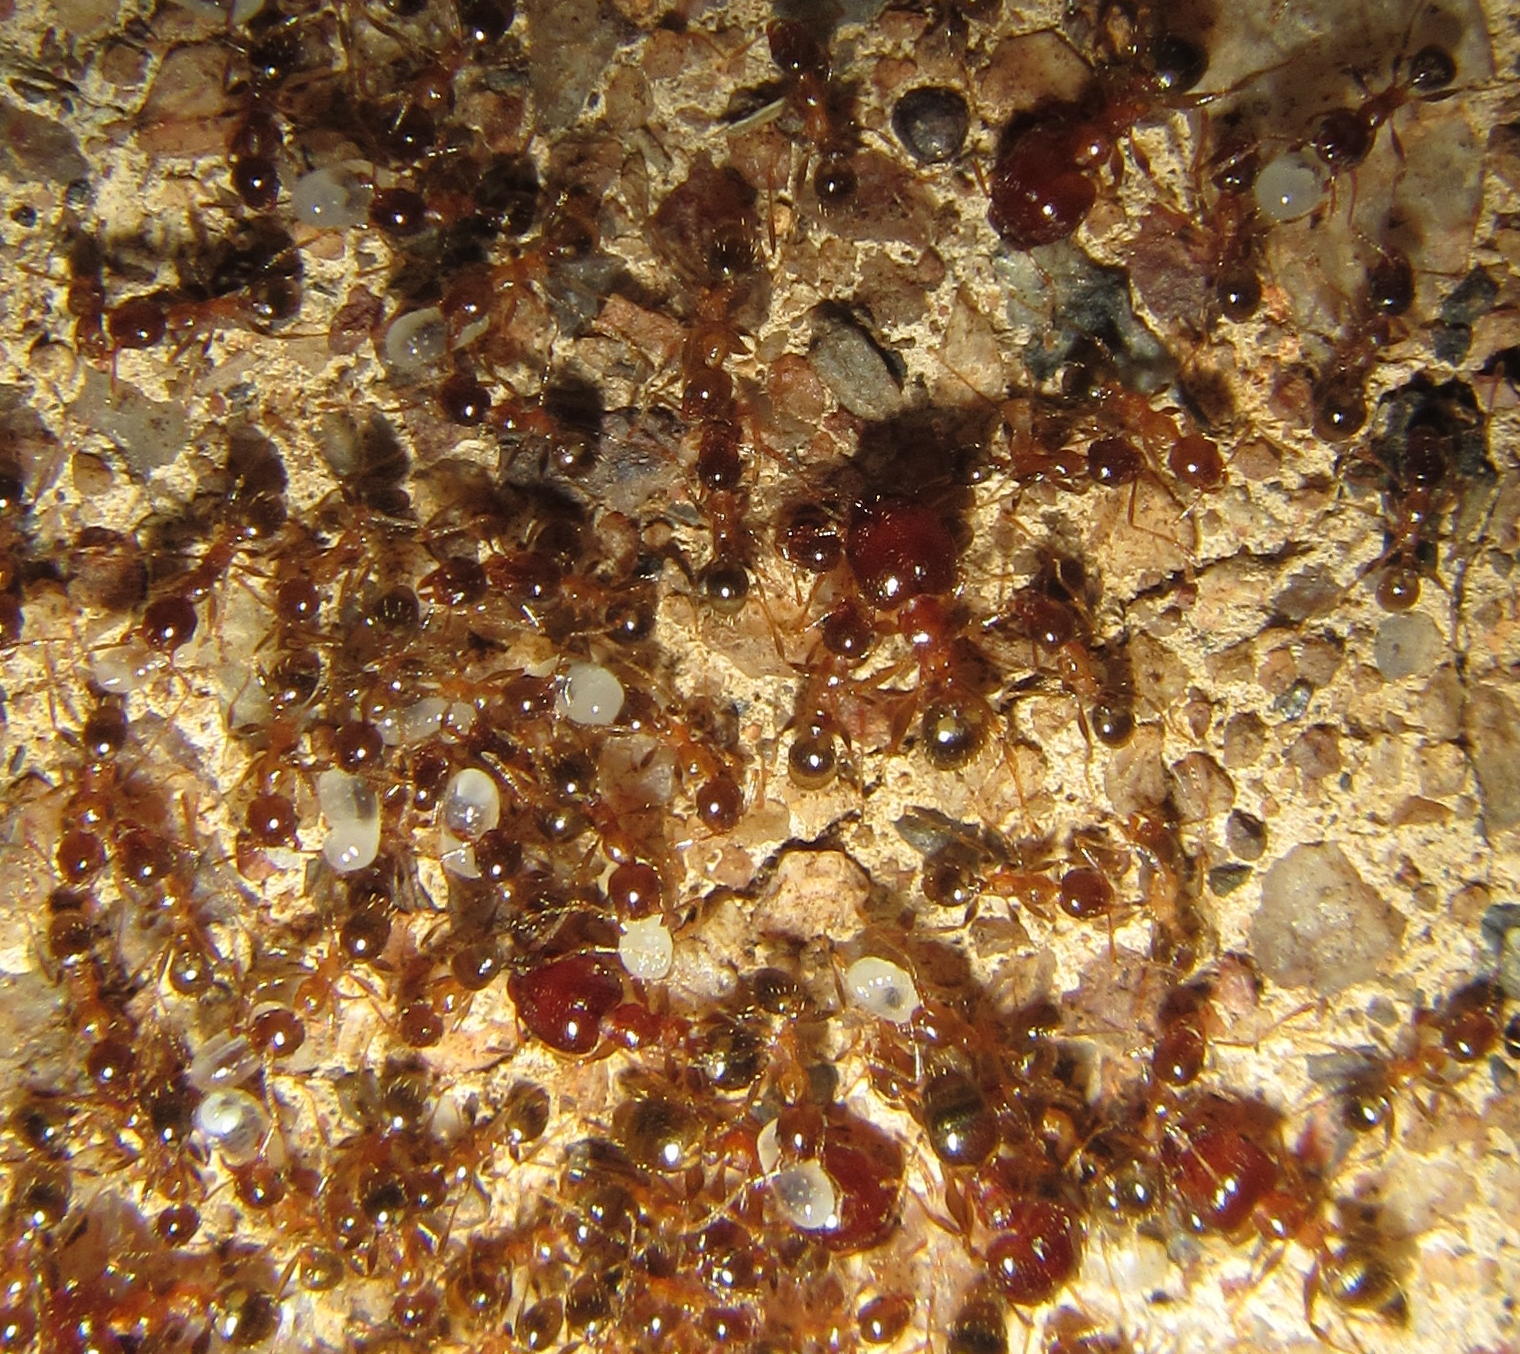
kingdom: Animalia
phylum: Arthropoda
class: Insecta
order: Hymenoptera
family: Formicidae
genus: Pheidole
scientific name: Pheidole megacephala
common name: Bigheaded ant
